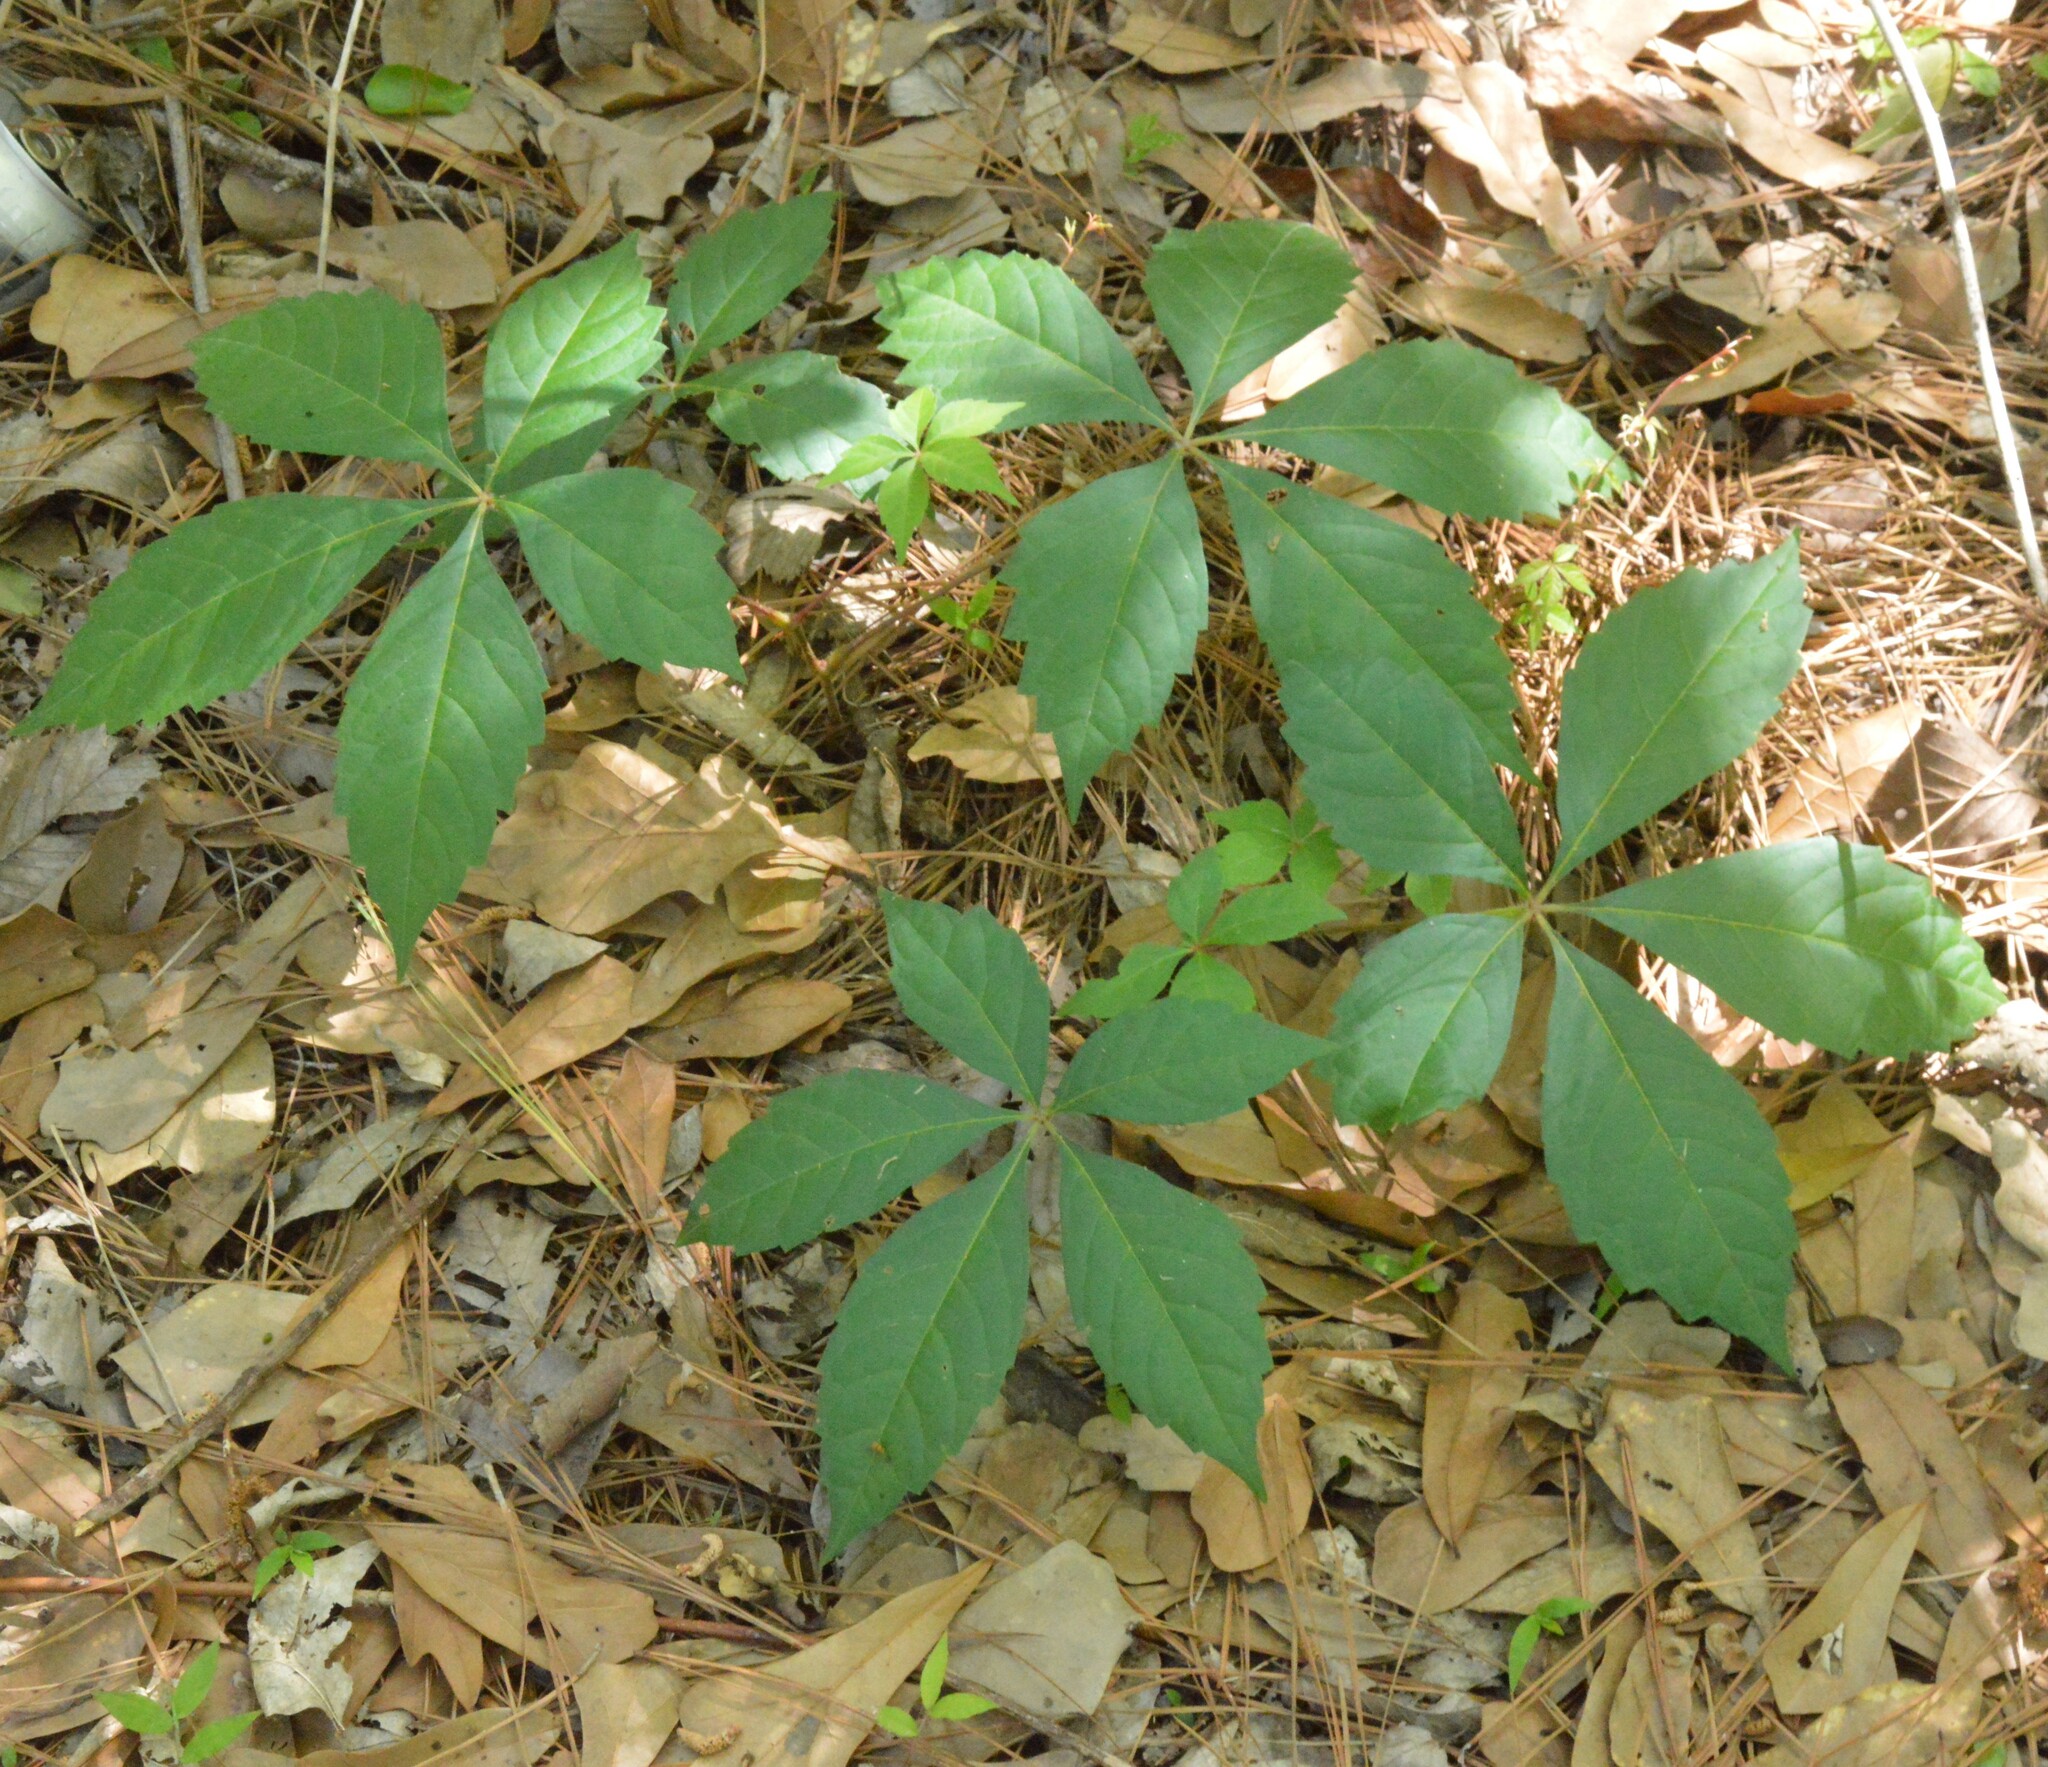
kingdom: Plantae
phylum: Tracheophyta
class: Magnoliopsida
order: Vitales
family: Vitaceae
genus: Parthenocissus
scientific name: Parthenocissus quinquefolia
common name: Virginia-creeper
